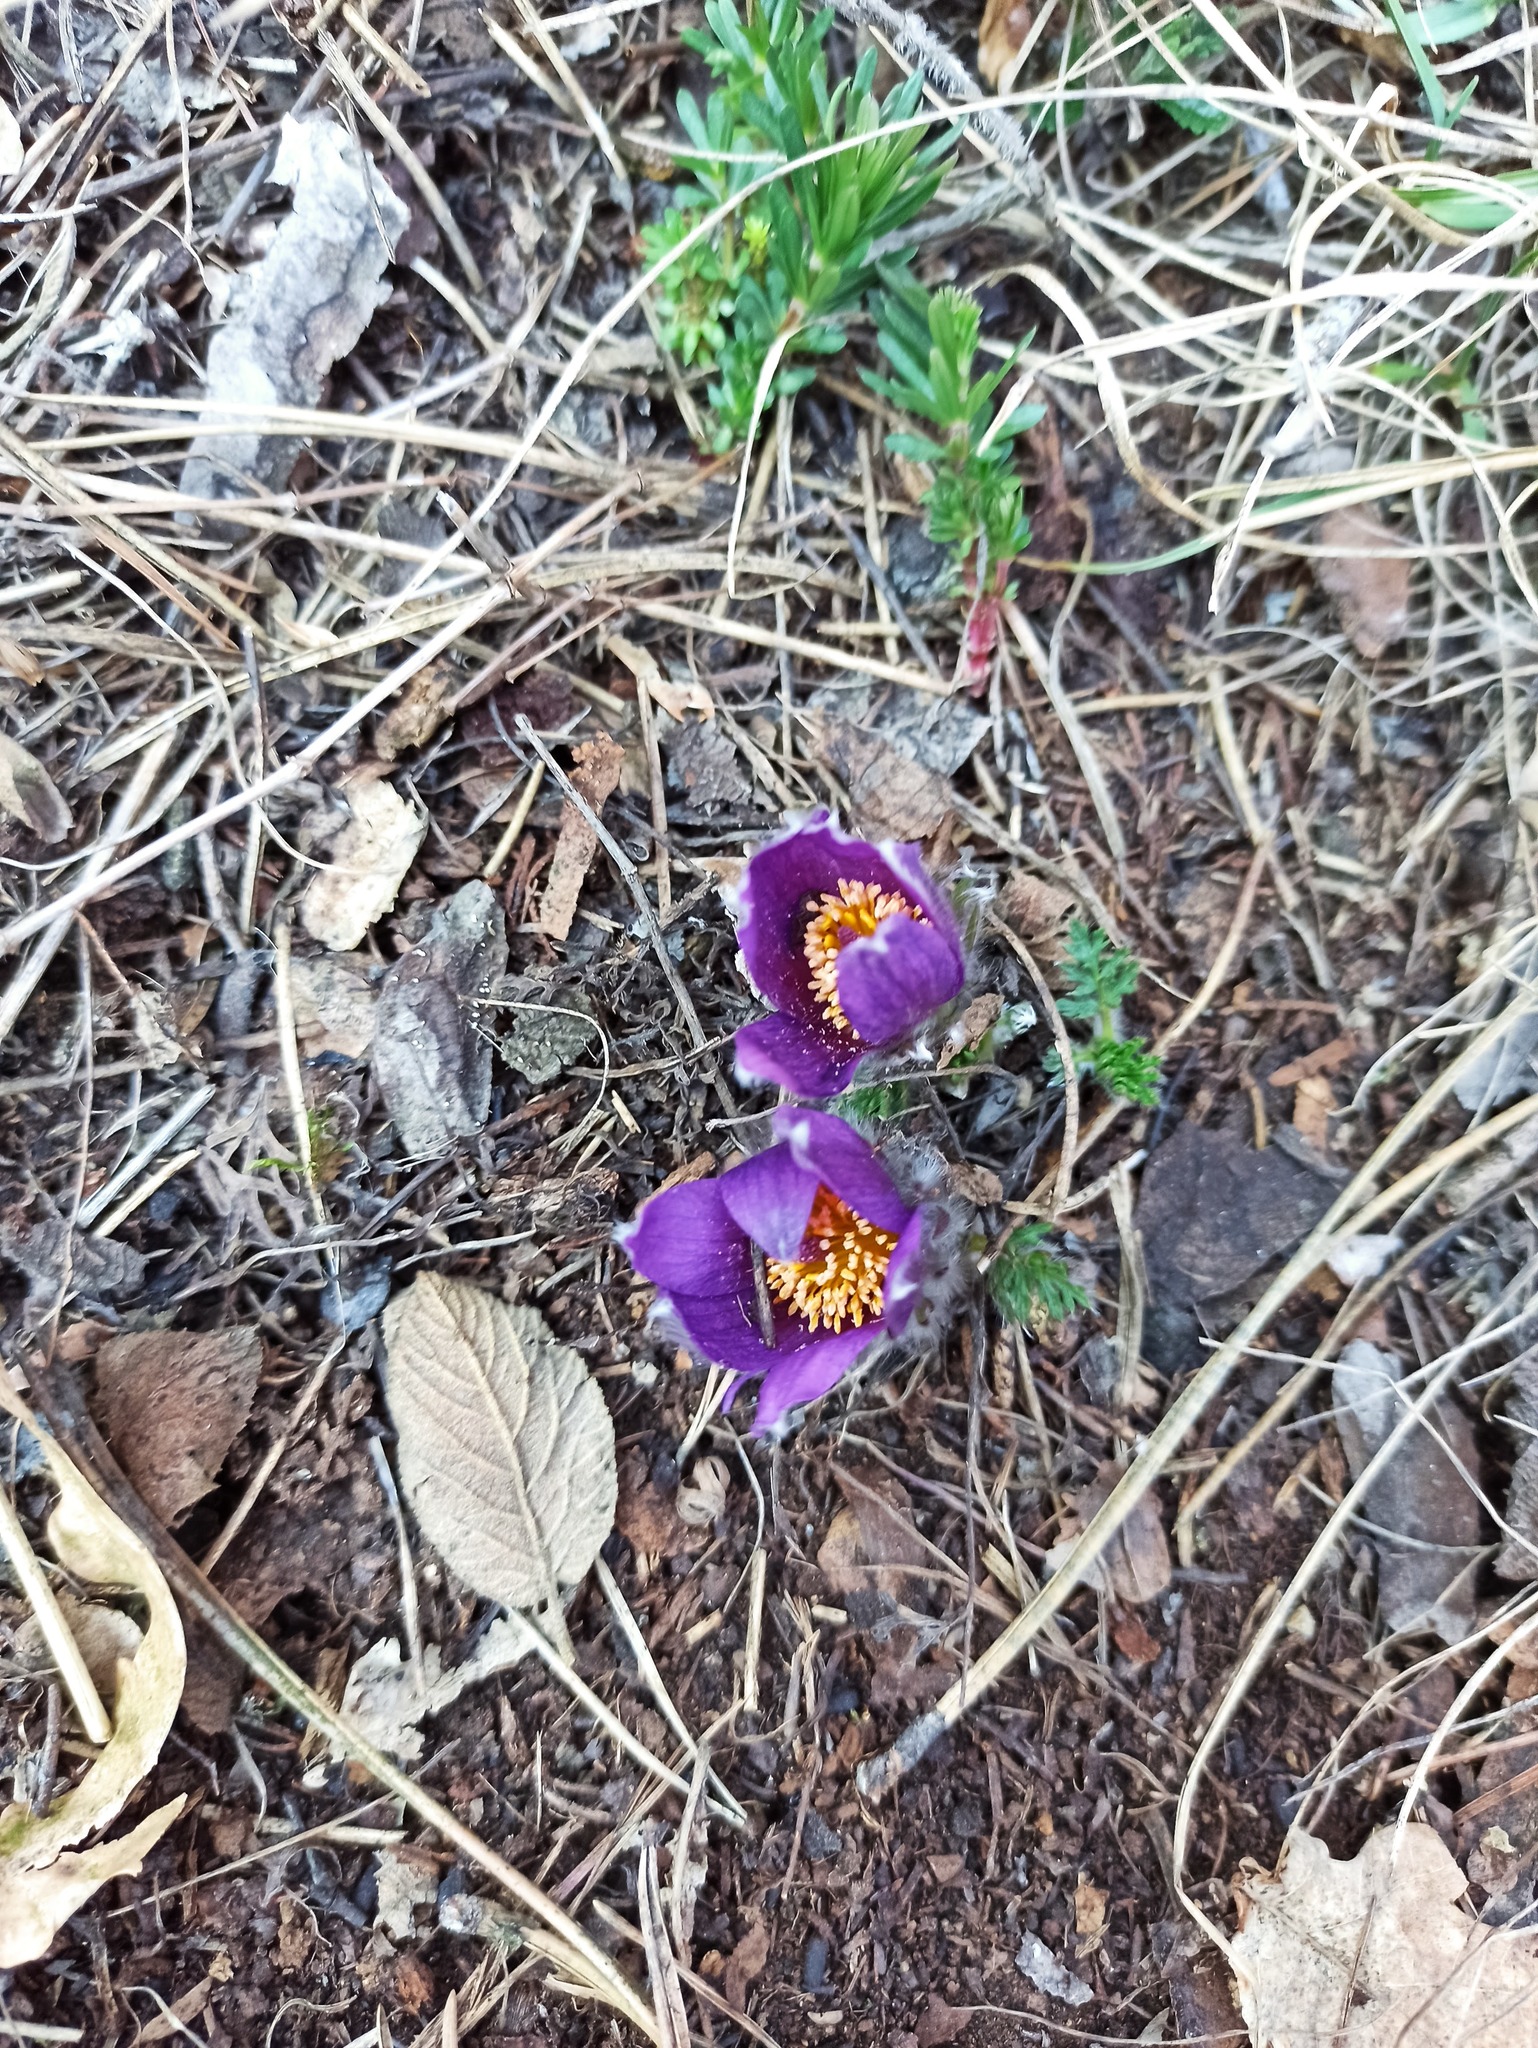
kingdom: Plantae
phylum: Tracheophyta
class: Magnoliopsida
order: Ranunculales
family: Ranunculaceae
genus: Pulsatilla
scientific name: Pulsatilla vulgaris
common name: Pasqueflower
